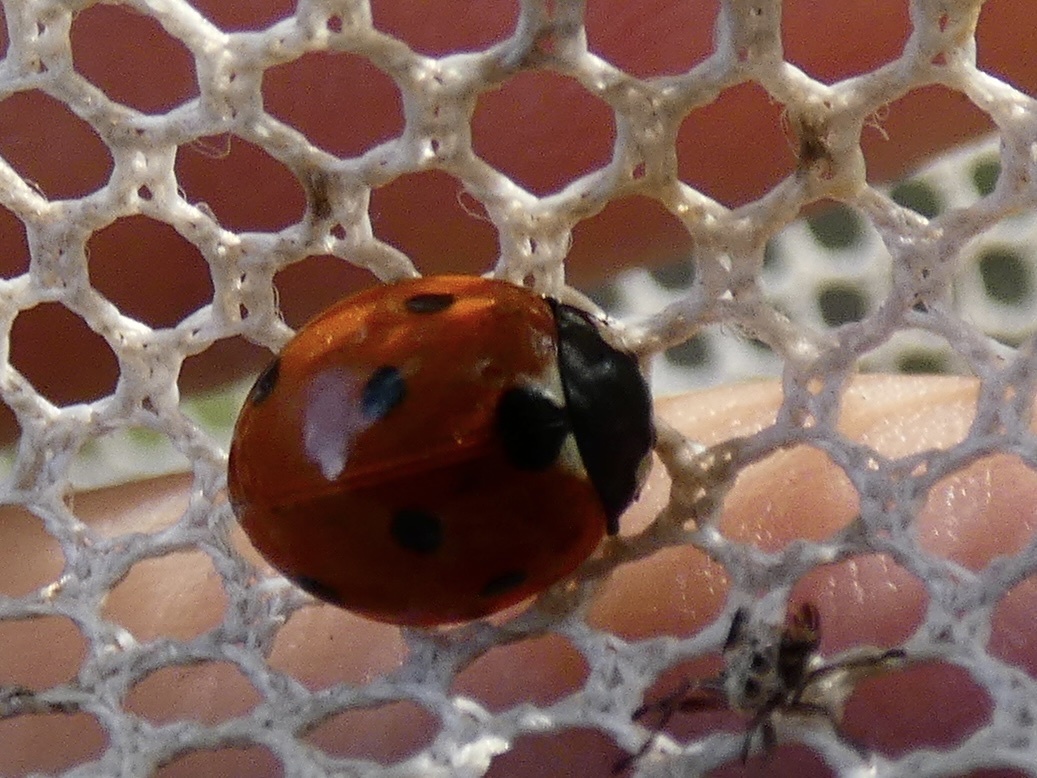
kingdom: Animalia
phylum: Arthropoda
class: Insecta
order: Coleoptera
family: Coccinellidae
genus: Coccinella
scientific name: Coccinella septempunctata
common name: Sevenspotted lady beetle
